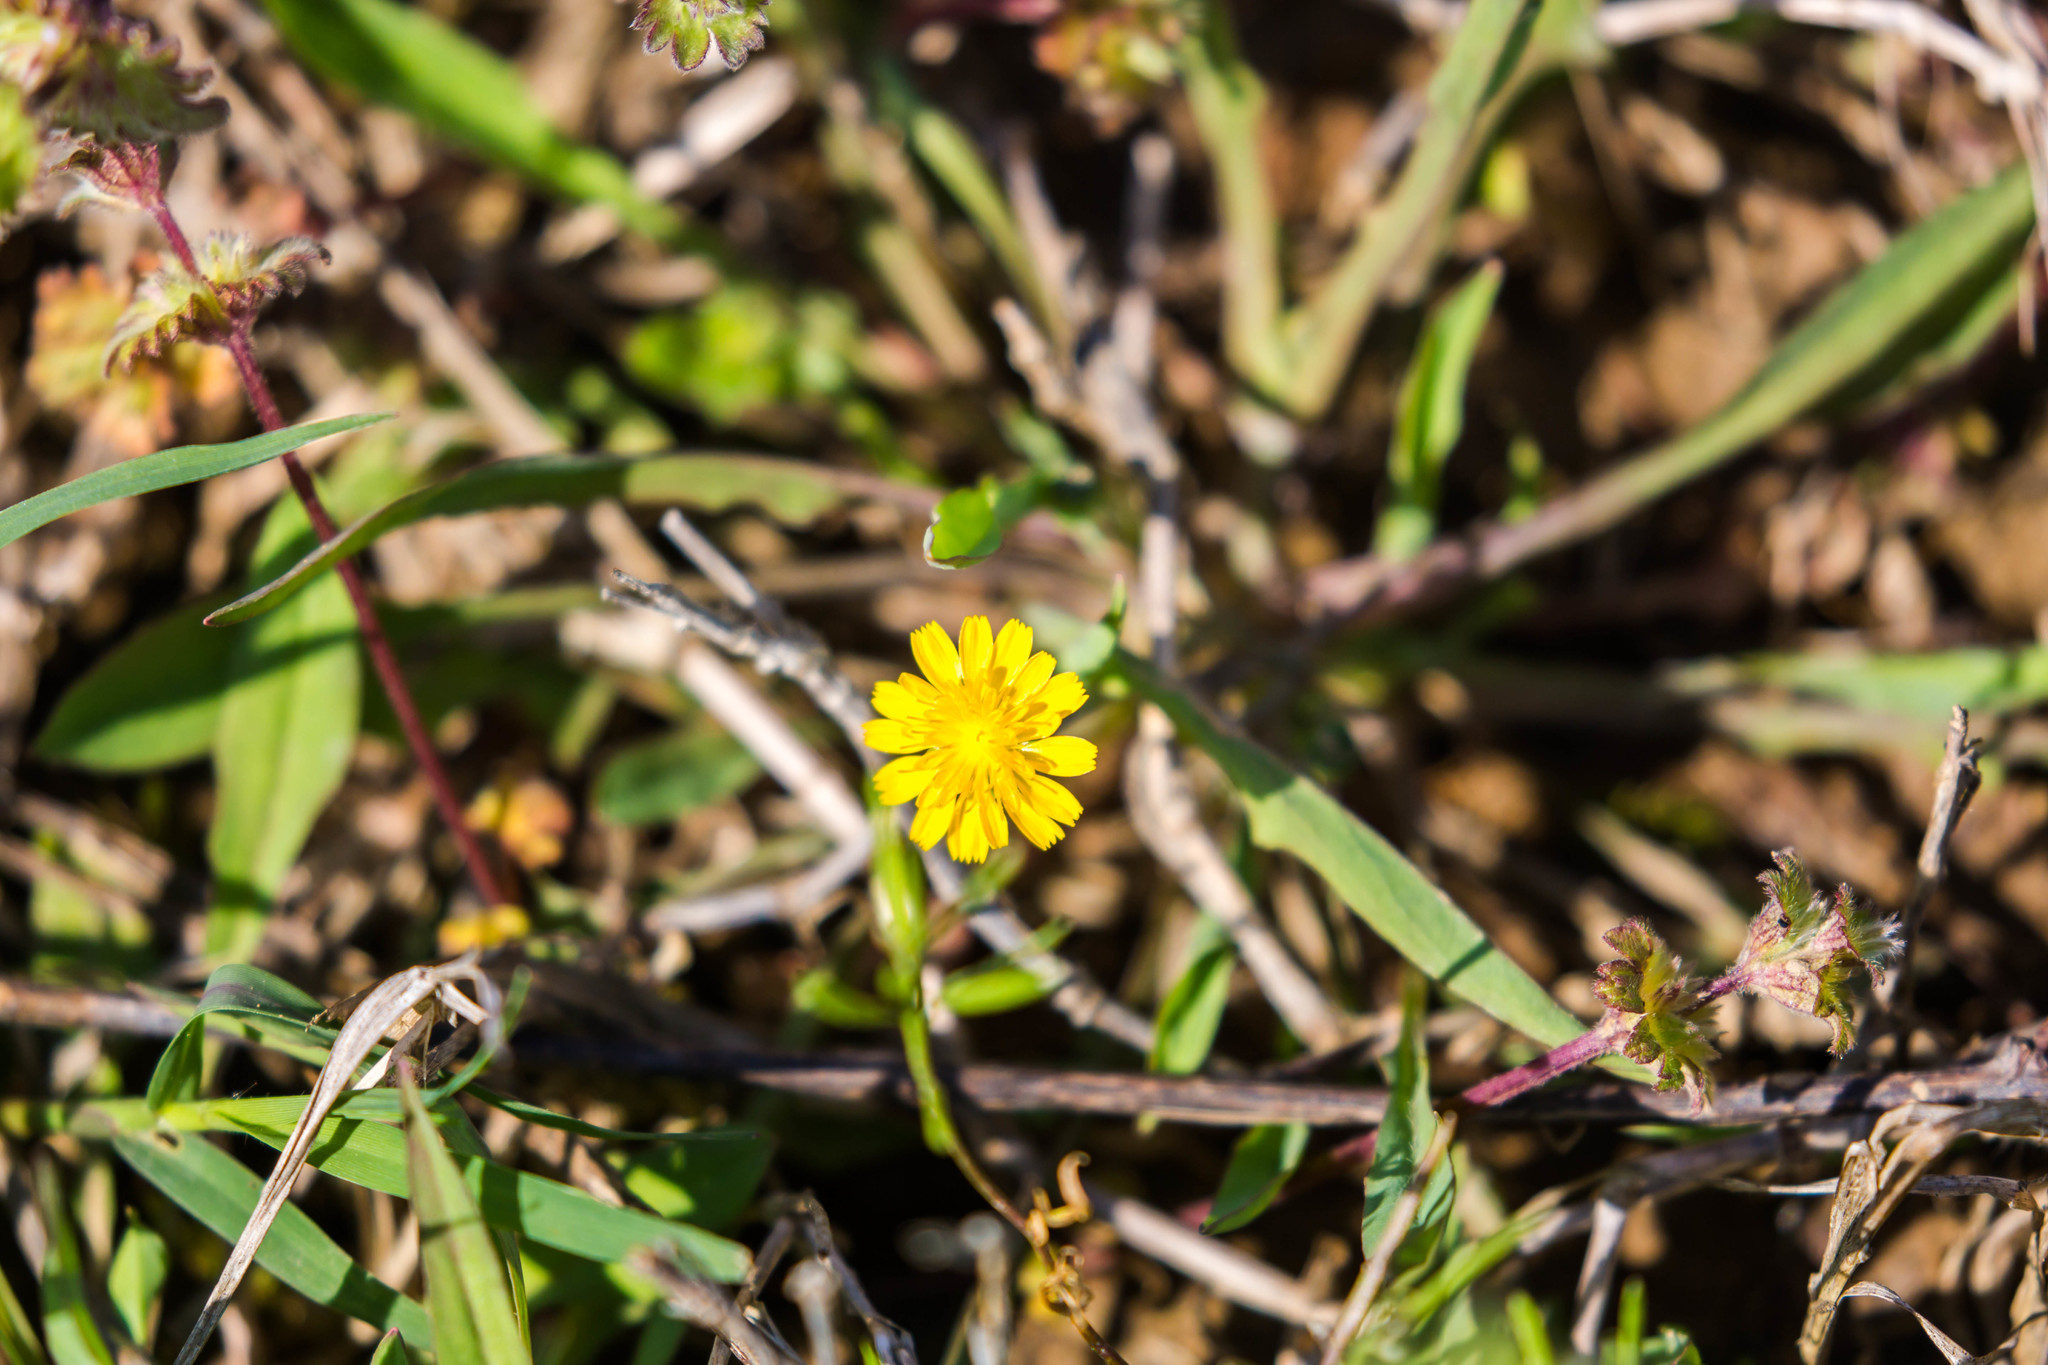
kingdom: Plantae
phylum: Tracheophyta
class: Magnoliopsida
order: Asterales
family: Asteraceae
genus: Krigia
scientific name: Krigia cespitosa
